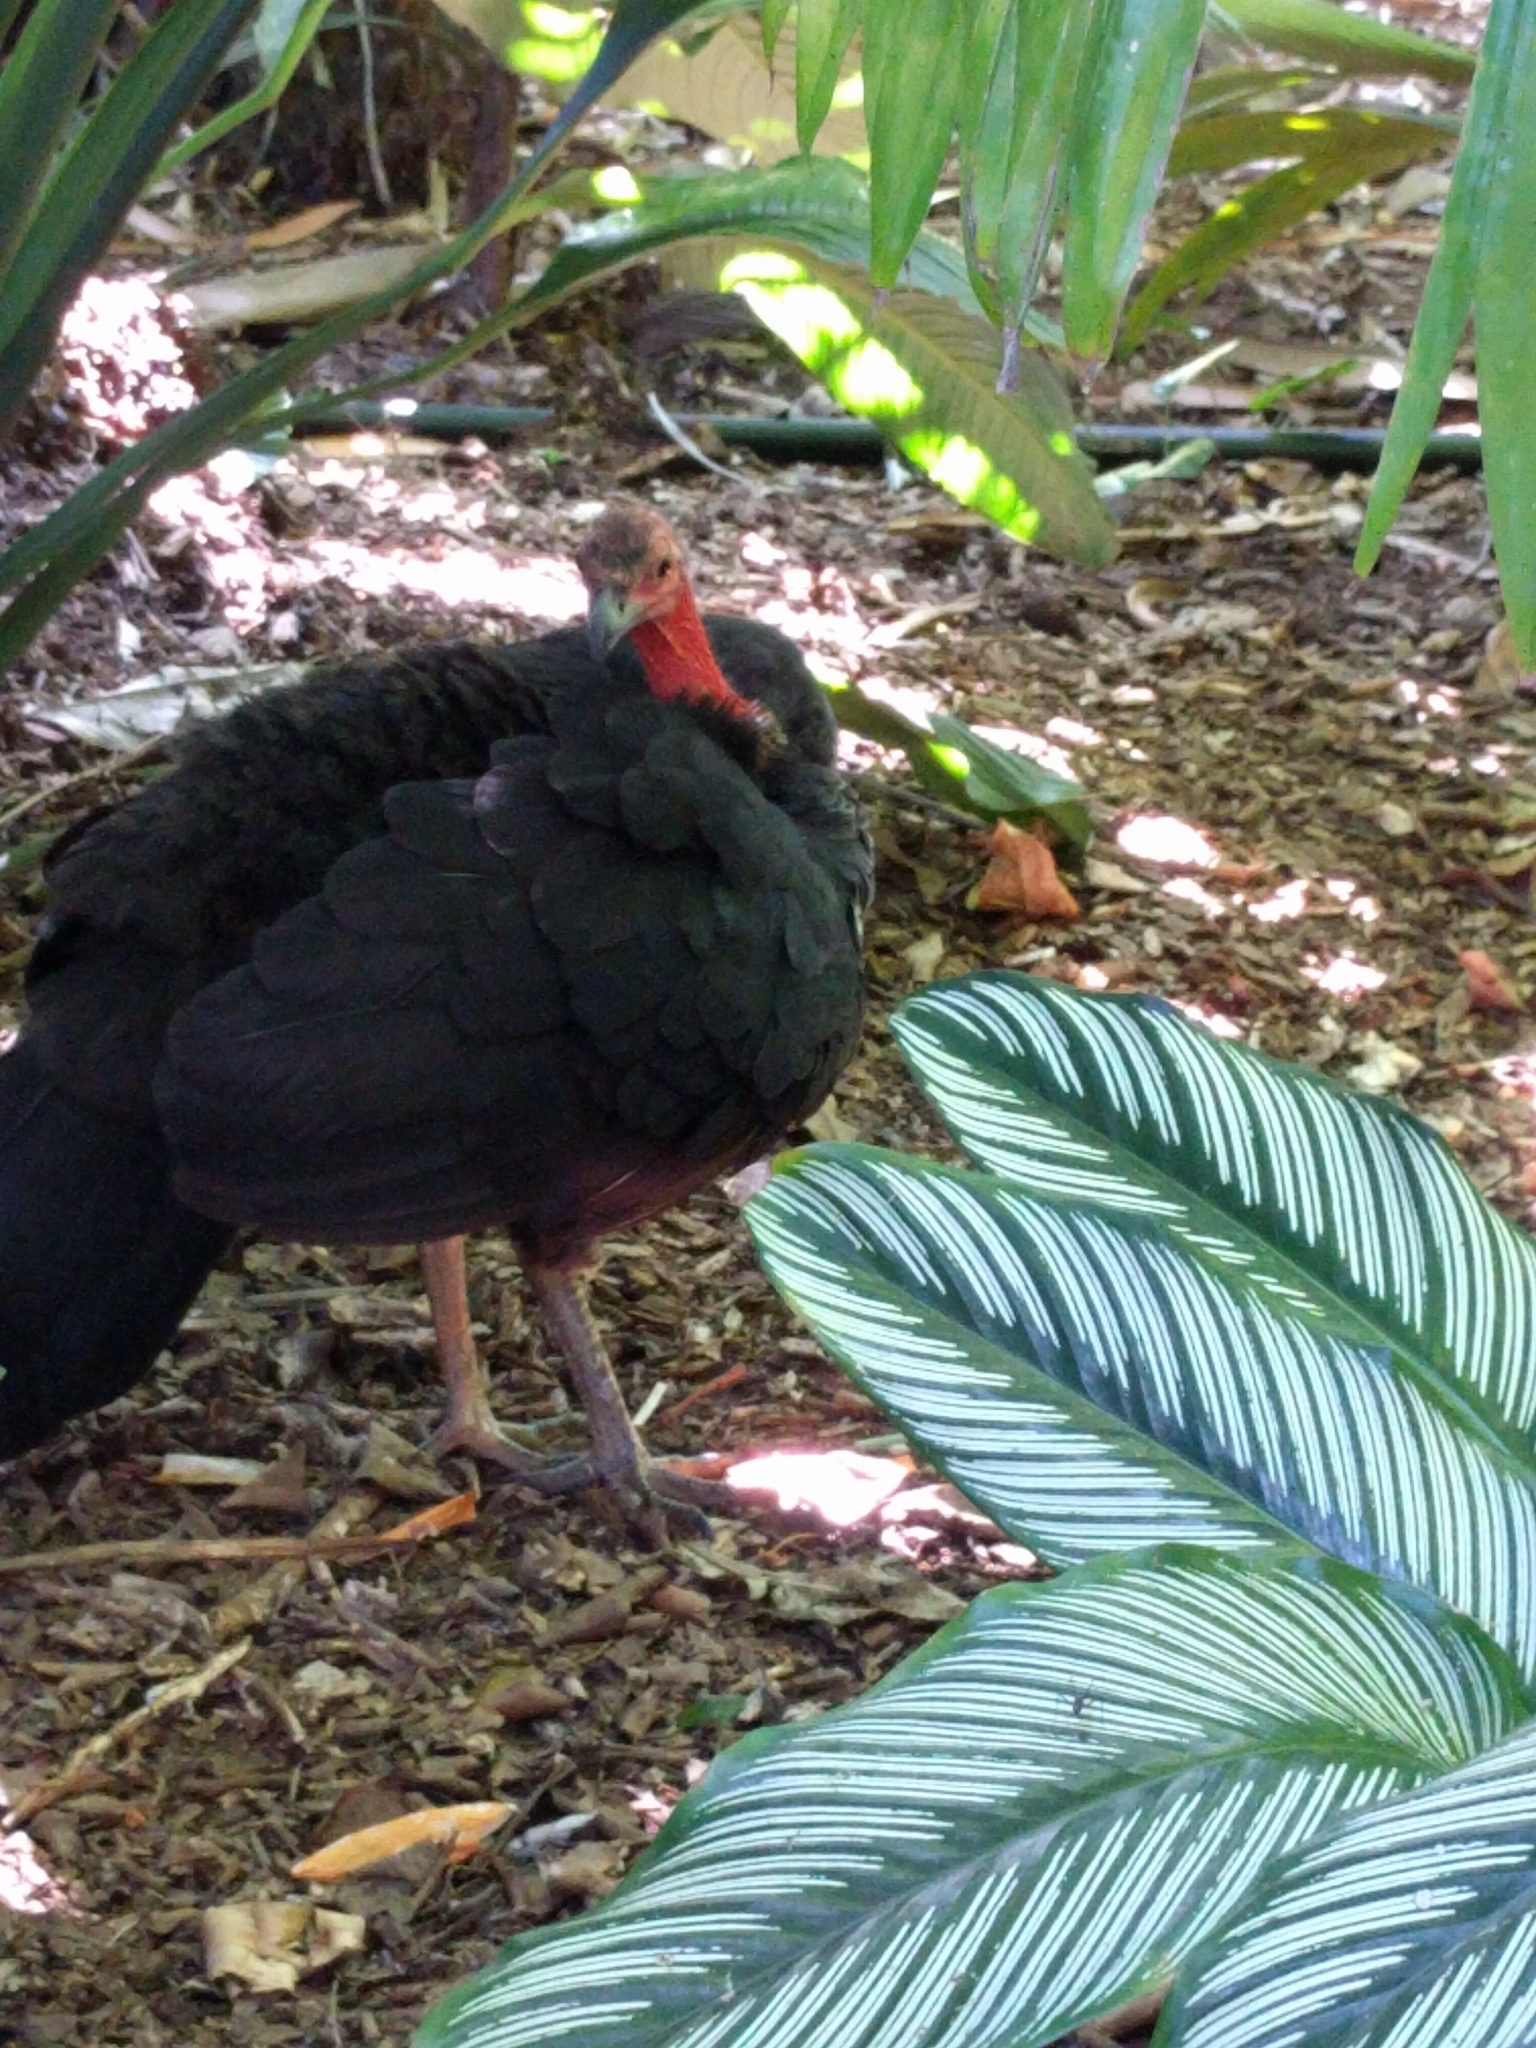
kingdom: Animalia
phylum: Chordata
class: Aves
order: Galliformes
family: Megapodiidae
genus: Alectura
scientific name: Alectura lathami
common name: Australian brushturkey
